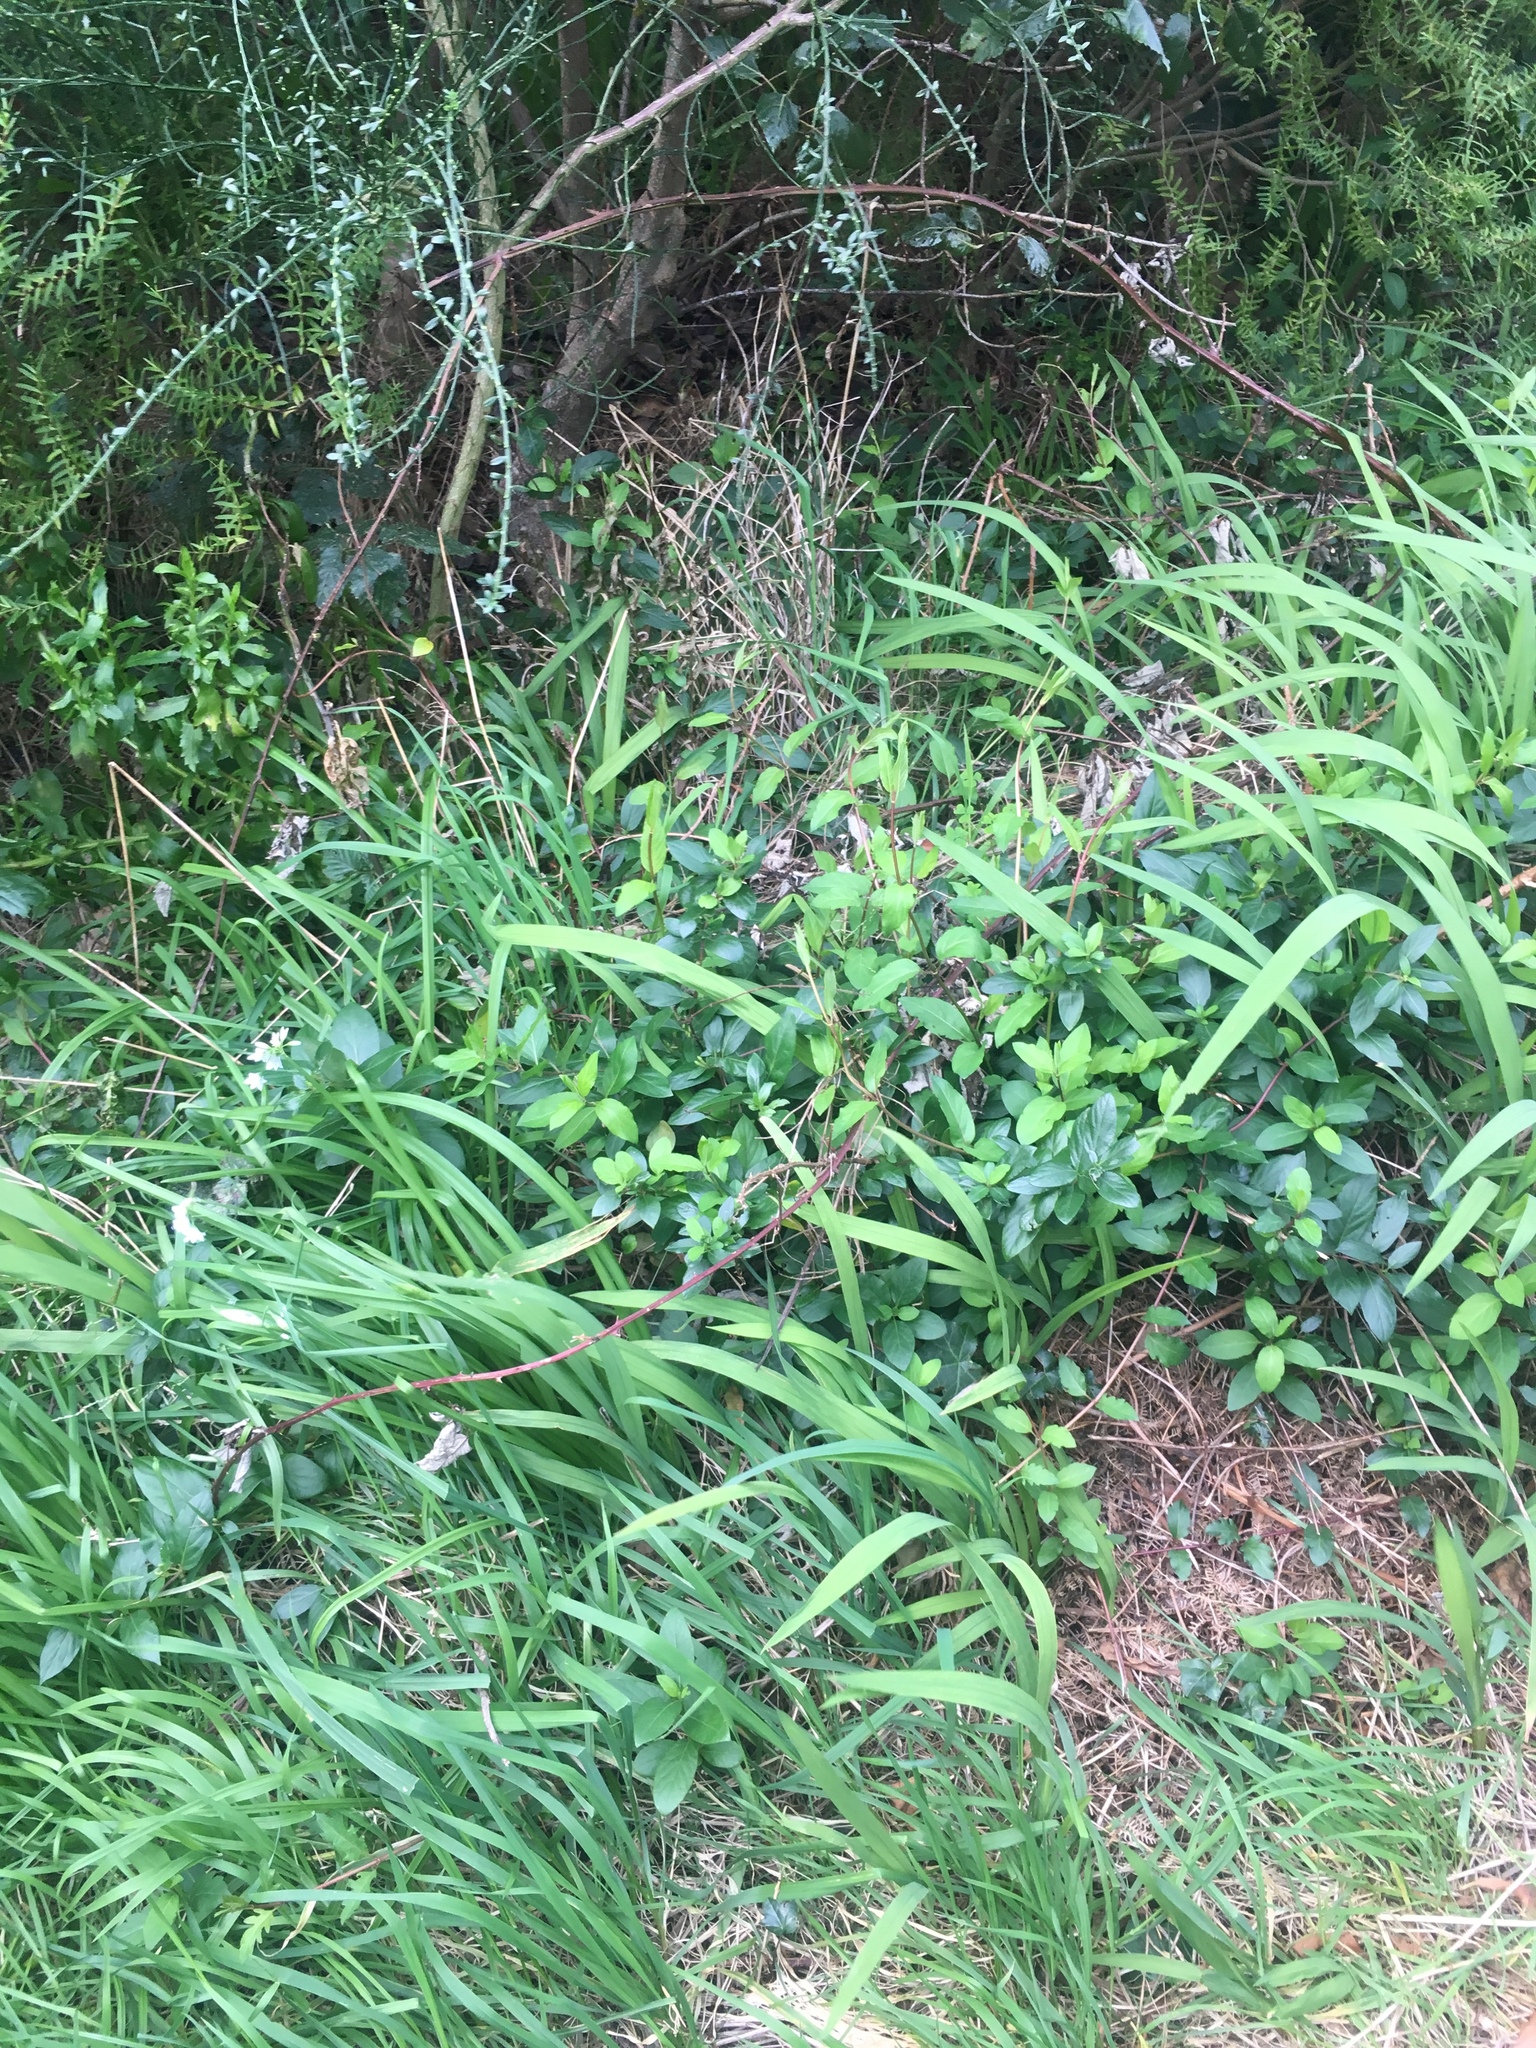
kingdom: Plantae
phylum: Tracheophyta
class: Magnoliopsida
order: Dipsacales
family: Caprifoliaceae
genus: Lonicera
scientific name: Lonicera japonica
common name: Japanese honeysuckle
